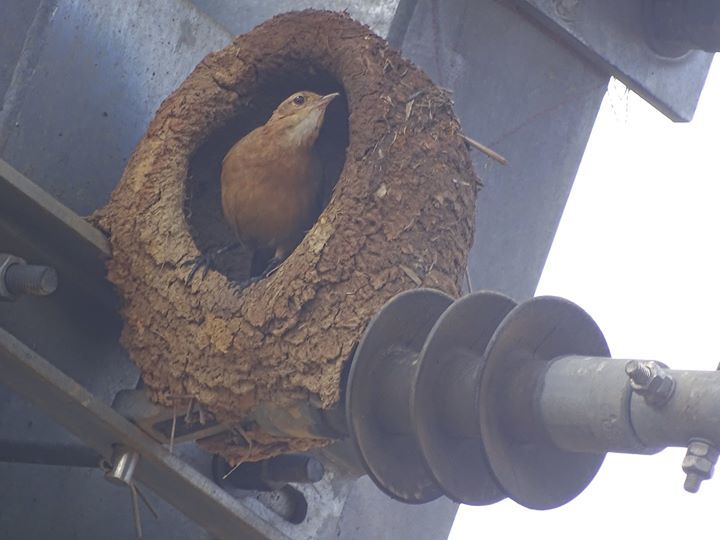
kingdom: Animalia
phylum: Chordata
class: Aves
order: Passeriformes
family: Furnariidae
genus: Furnarius
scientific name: Furnarius rufus
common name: Rufous hornero
